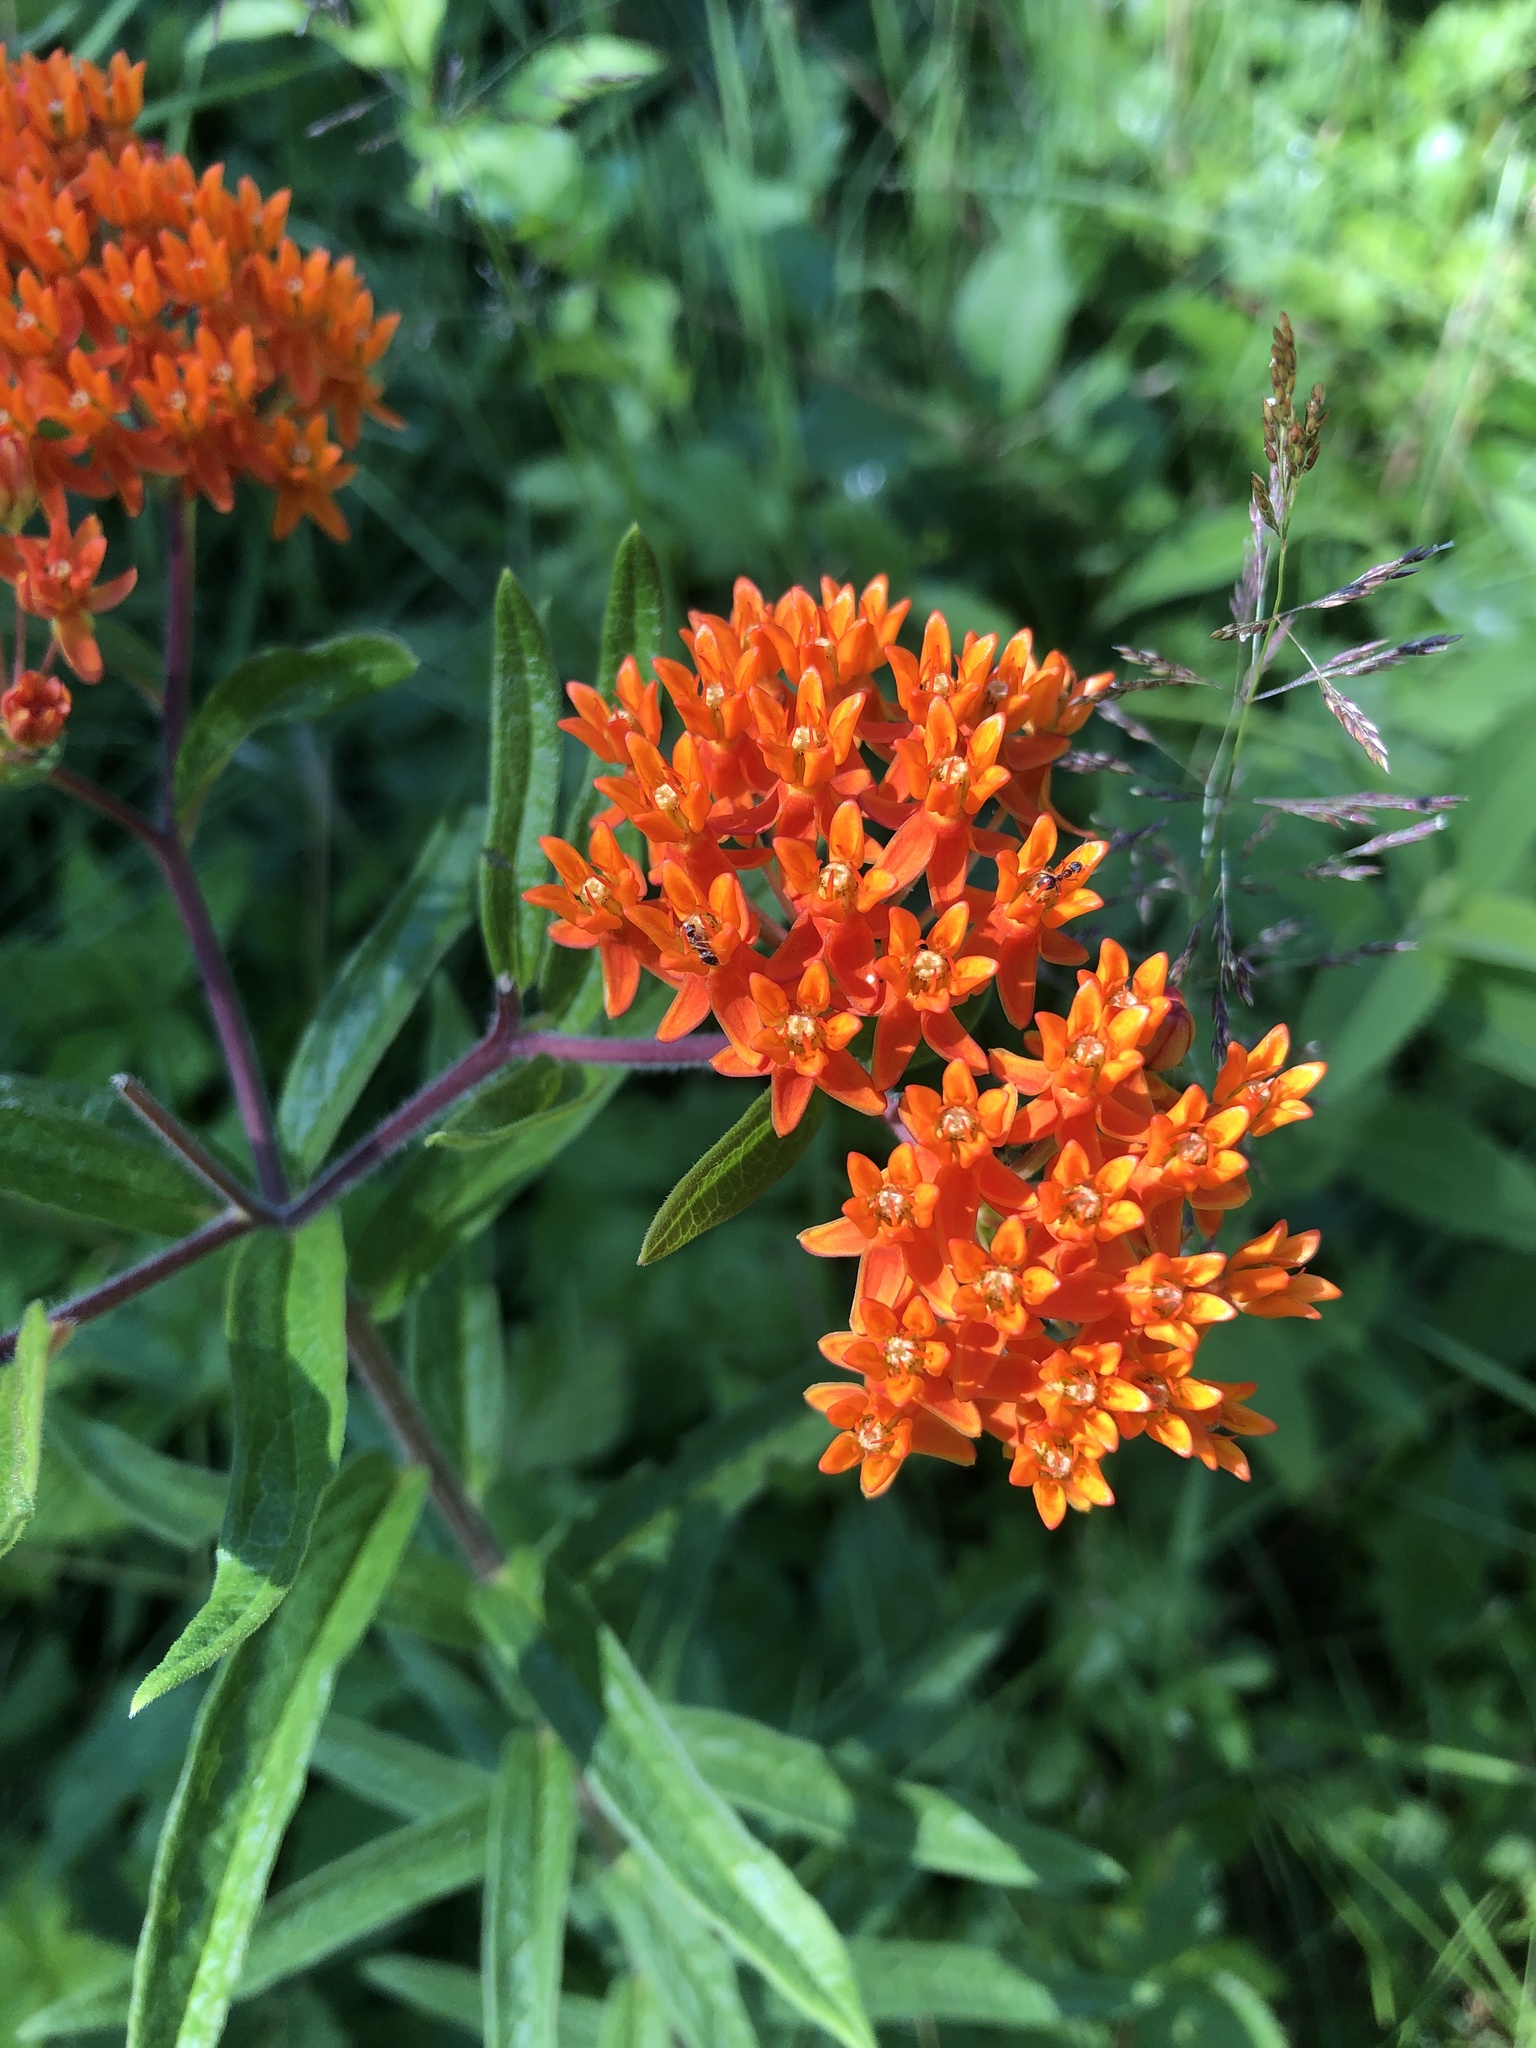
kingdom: Plantae
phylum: Tracheophyta
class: Magnoliopsida
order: Gentianales
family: Apocynaceae
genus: Asclepias
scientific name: Asclepias tuberosa
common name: Butterfly milkweed
